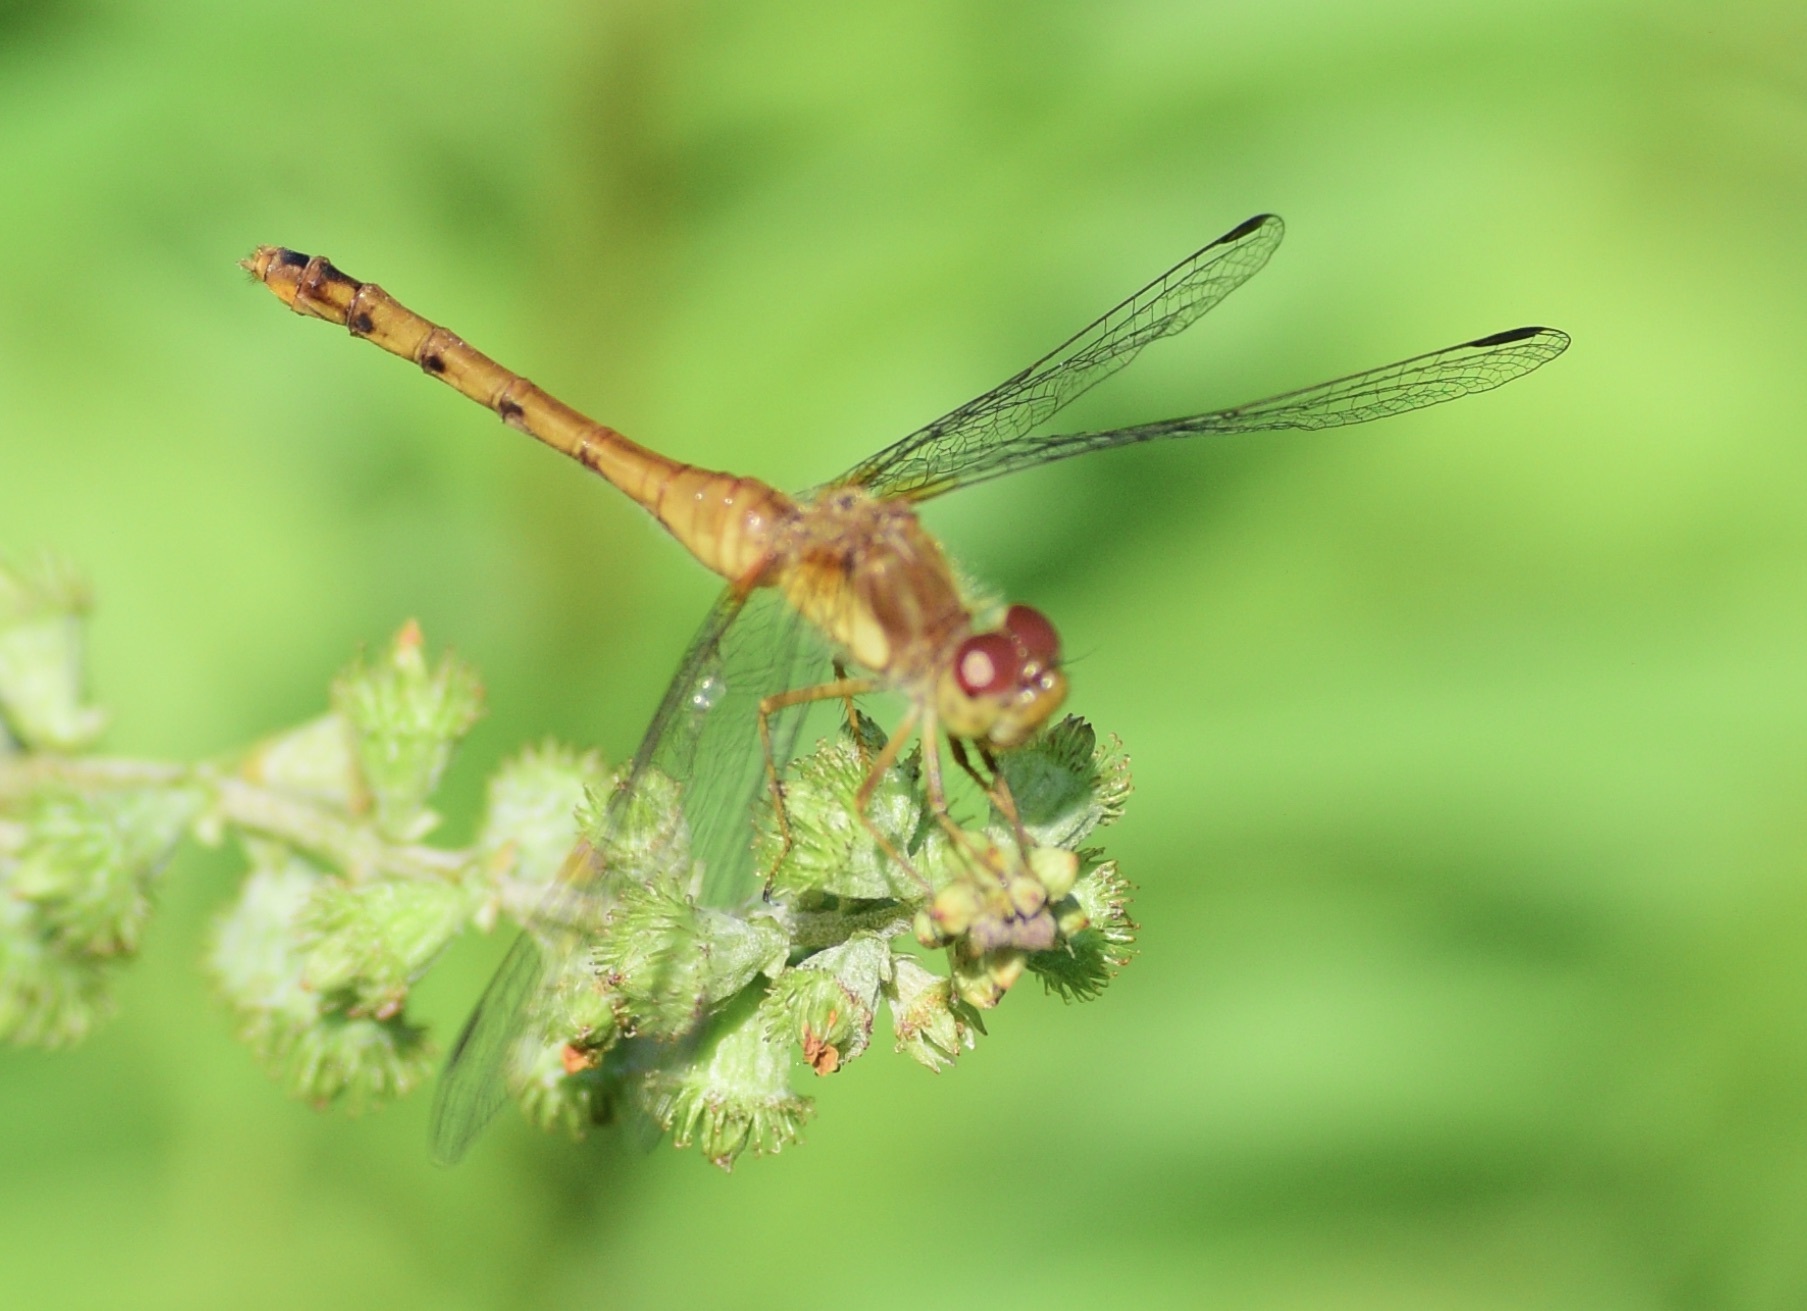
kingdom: Animalia
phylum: Arthropoda
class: Insecta
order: Odonata
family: Libellulidae
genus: Sympetrum
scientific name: Sympetrum vicinum
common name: Autumn meadowhawk
